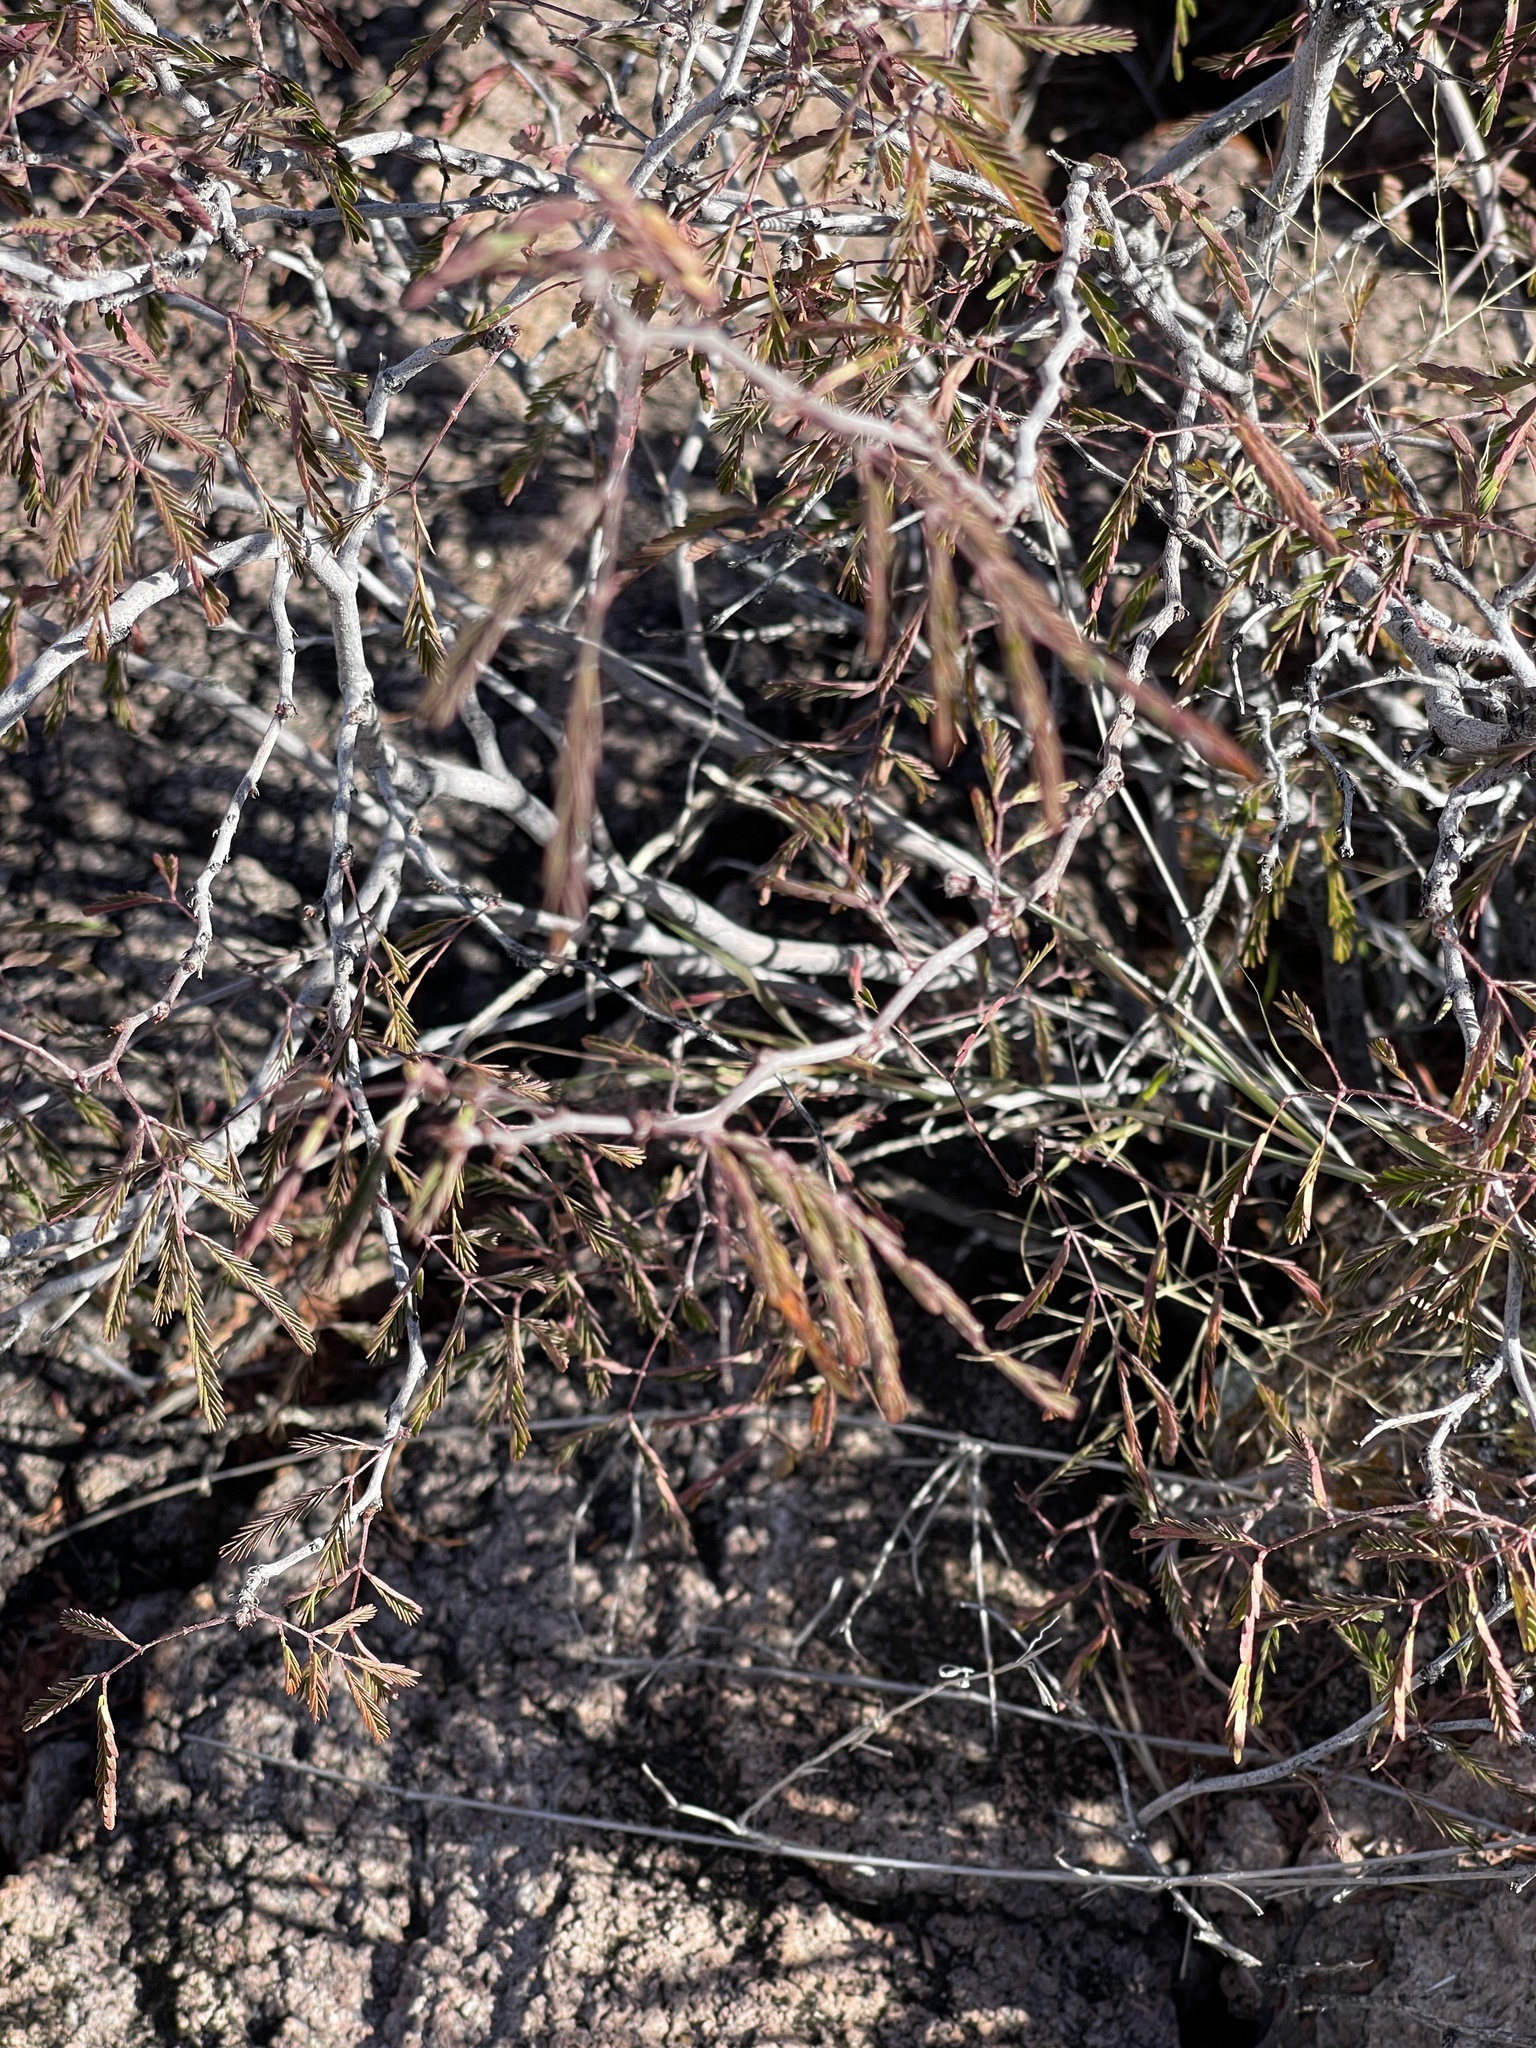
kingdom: Plantae
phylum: Tracheophyta
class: Magnoliopsida
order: Fabales
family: Fabaceae
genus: Calliandra
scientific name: Calliandra eriophylla
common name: Fairy-duster
